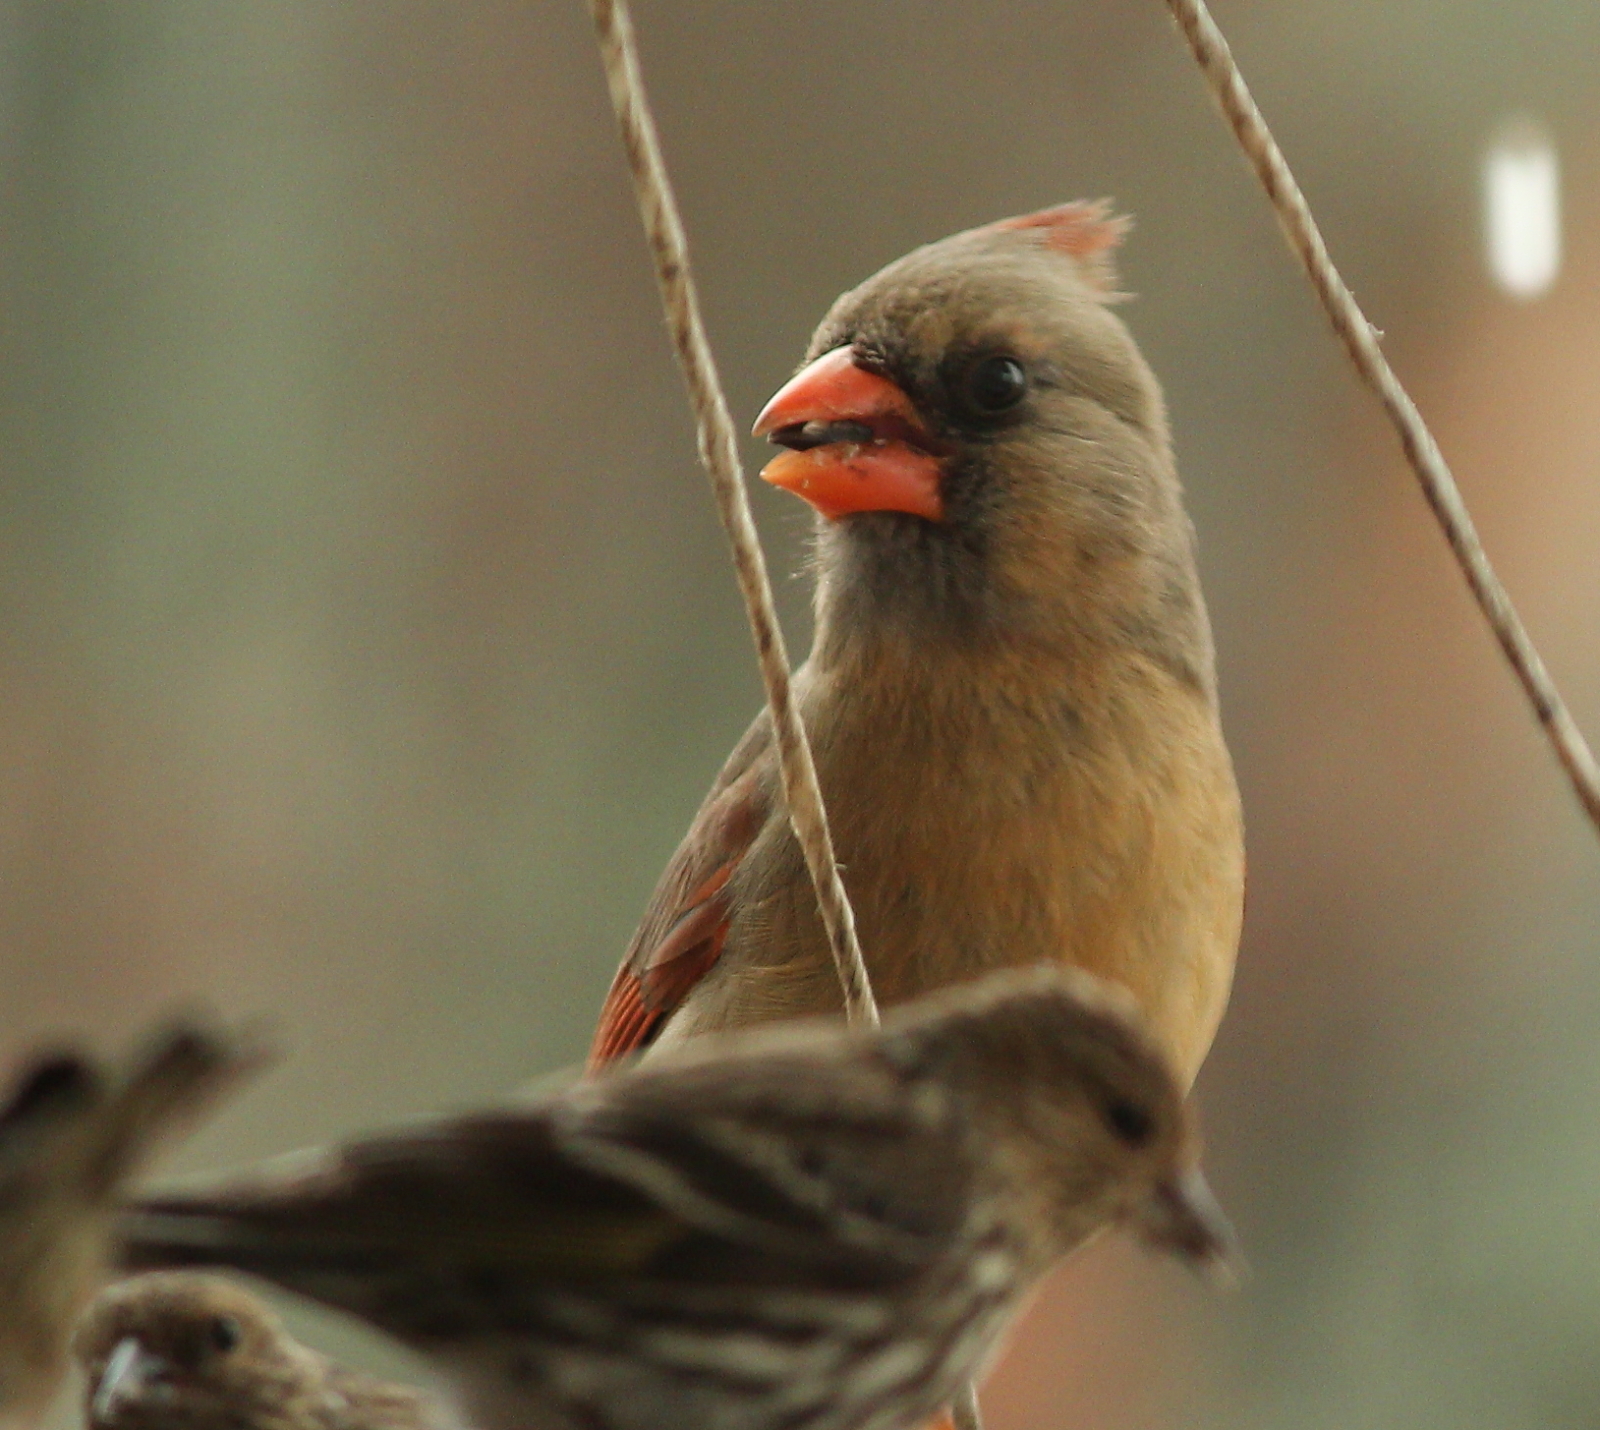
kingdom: Animalia
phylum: Chordata
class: Aves
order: Passeriformes
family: Cardinalidae
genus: Cardinalis
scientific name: Cardinalis cardinalis
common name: Northern cardinal
